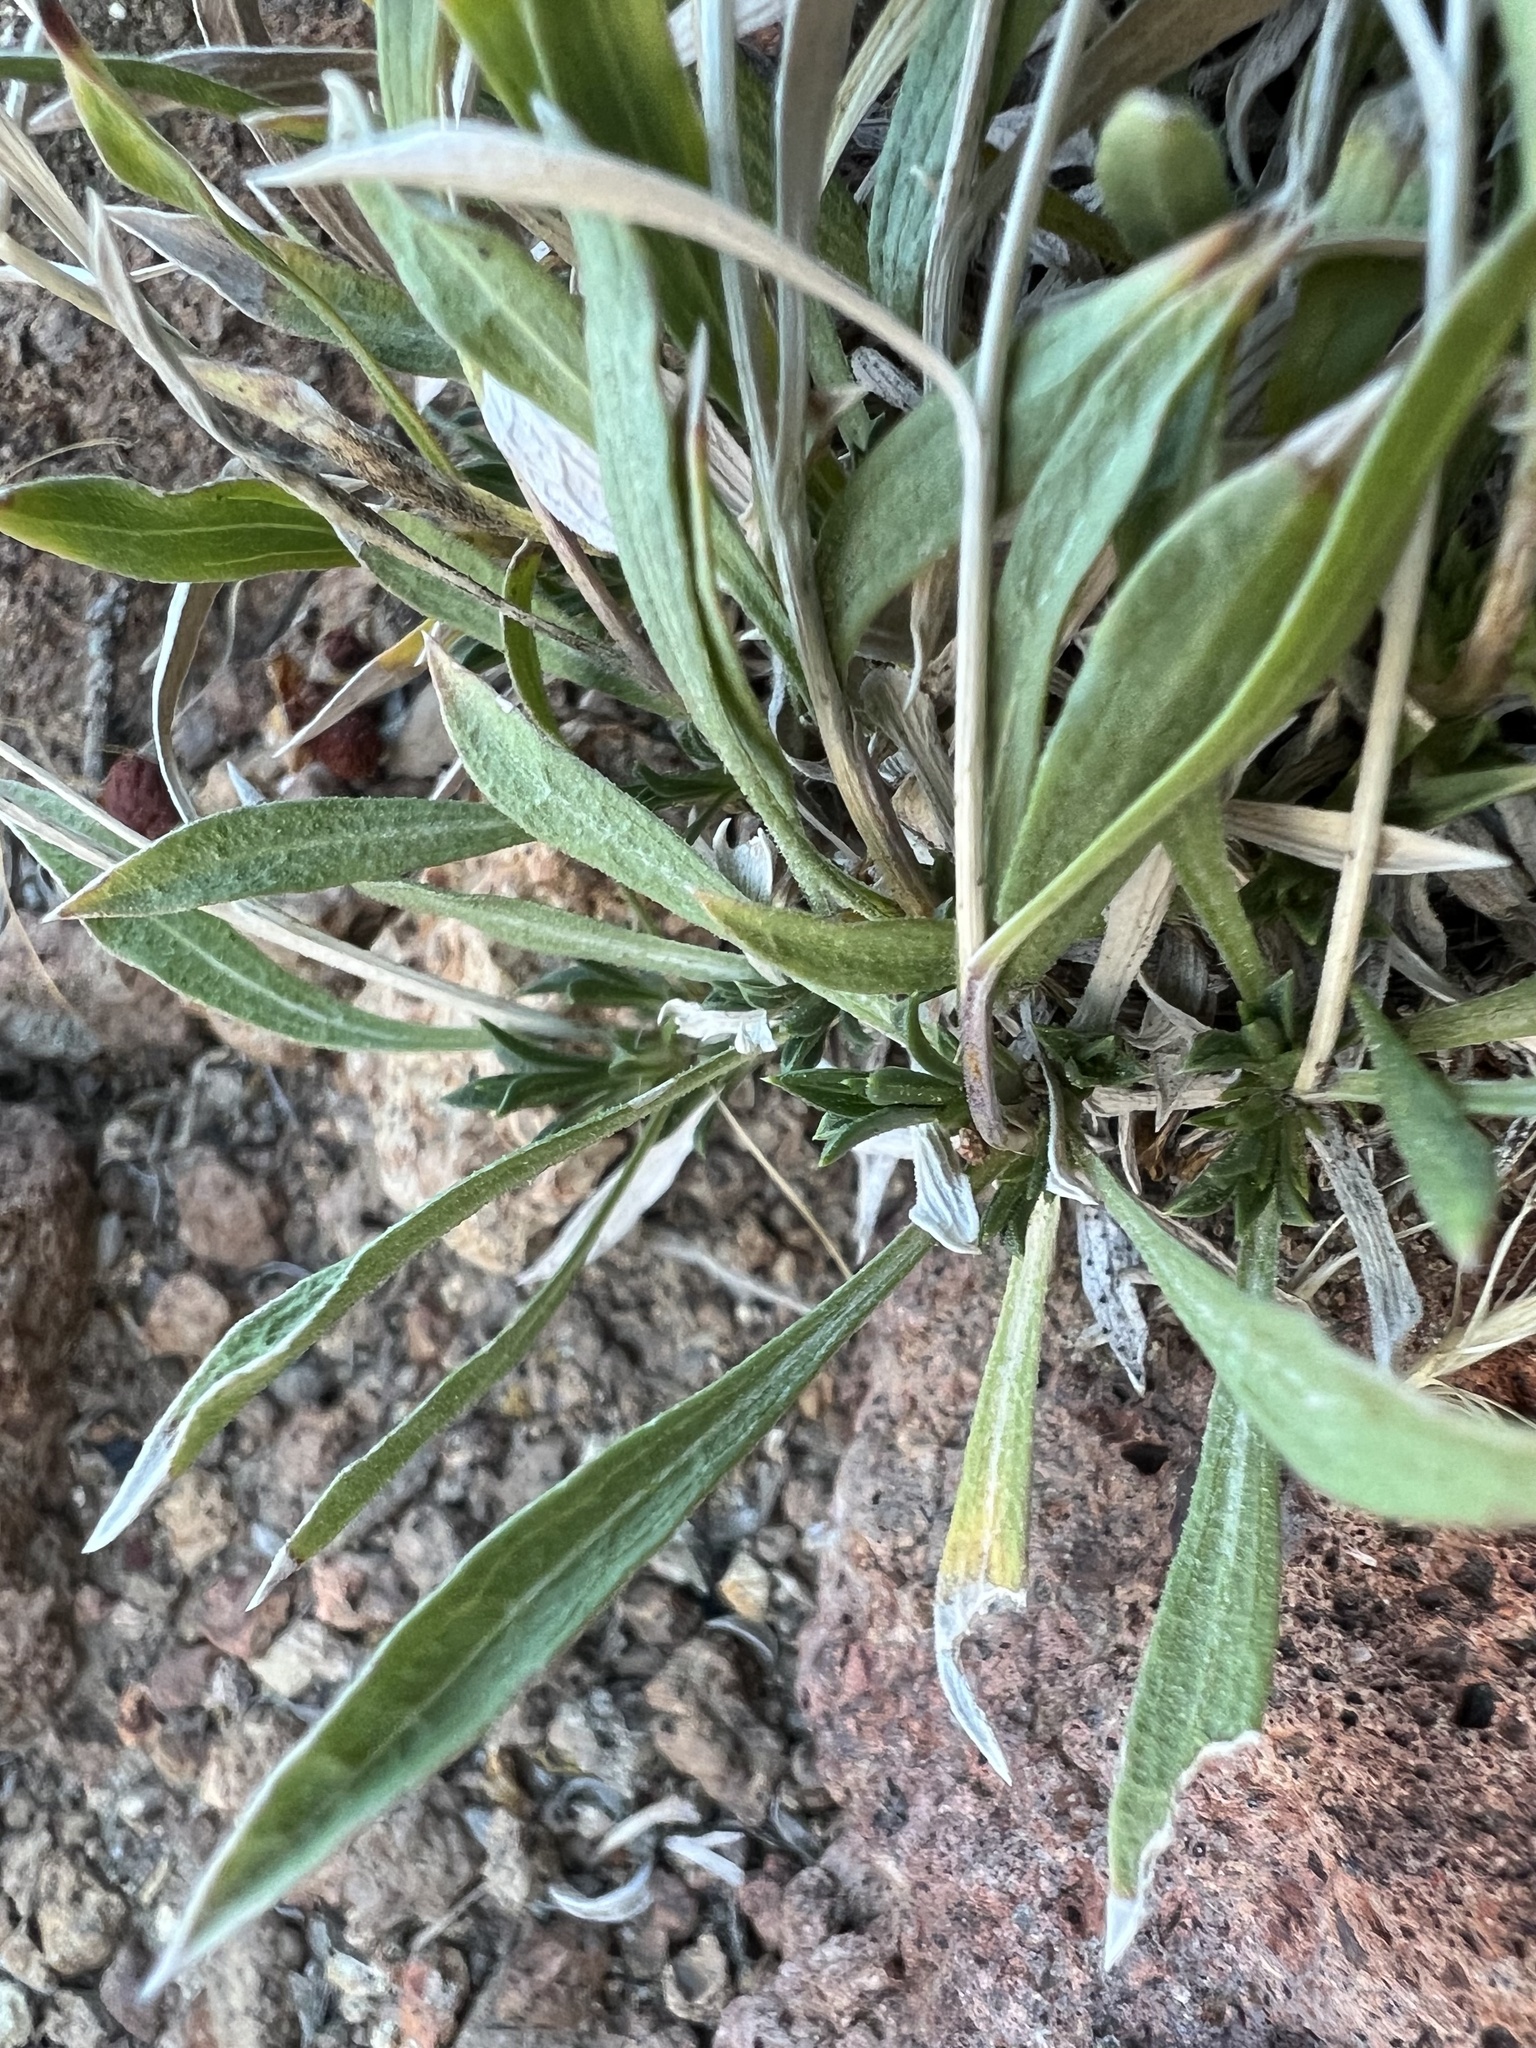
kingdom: Plantae
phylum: Tracheophyta
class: Magnoliopsida
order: Asterales
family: Asteraceae
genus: Stenotus
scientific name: Stenotus acaulis
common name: Stemless goldenweed
